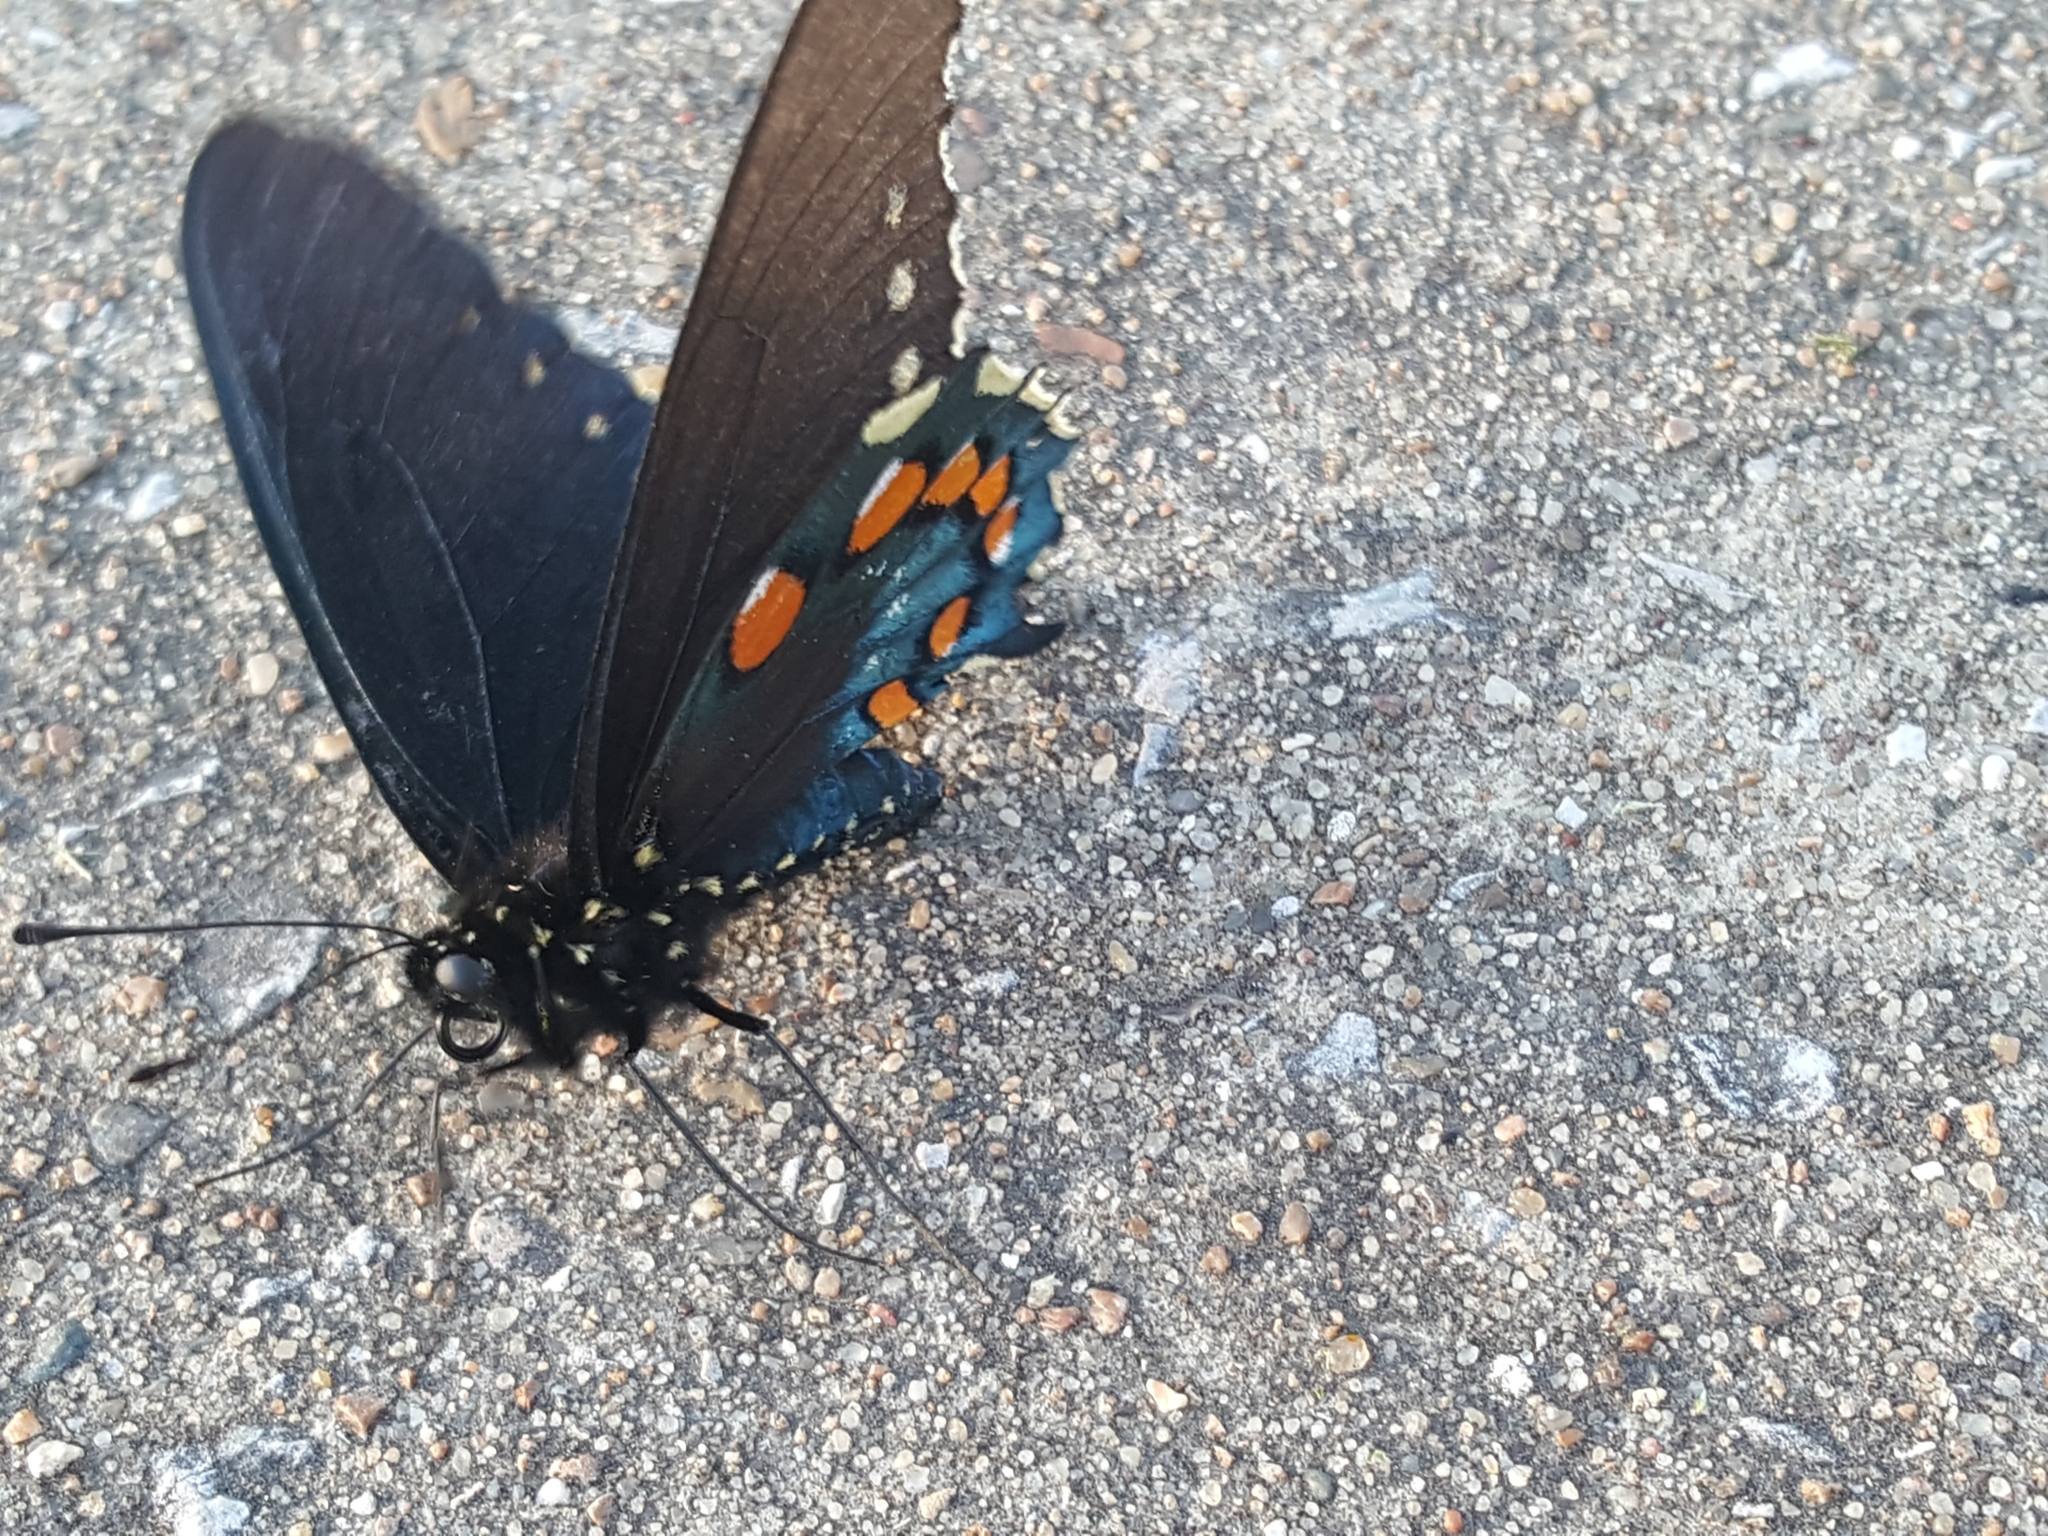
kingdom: Animalia
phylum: Arthropoda
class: Insecta
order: Lepidoptera
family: Papilionidae
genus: Battus
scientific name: Battus philenor
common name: Pipevine swallowtail
